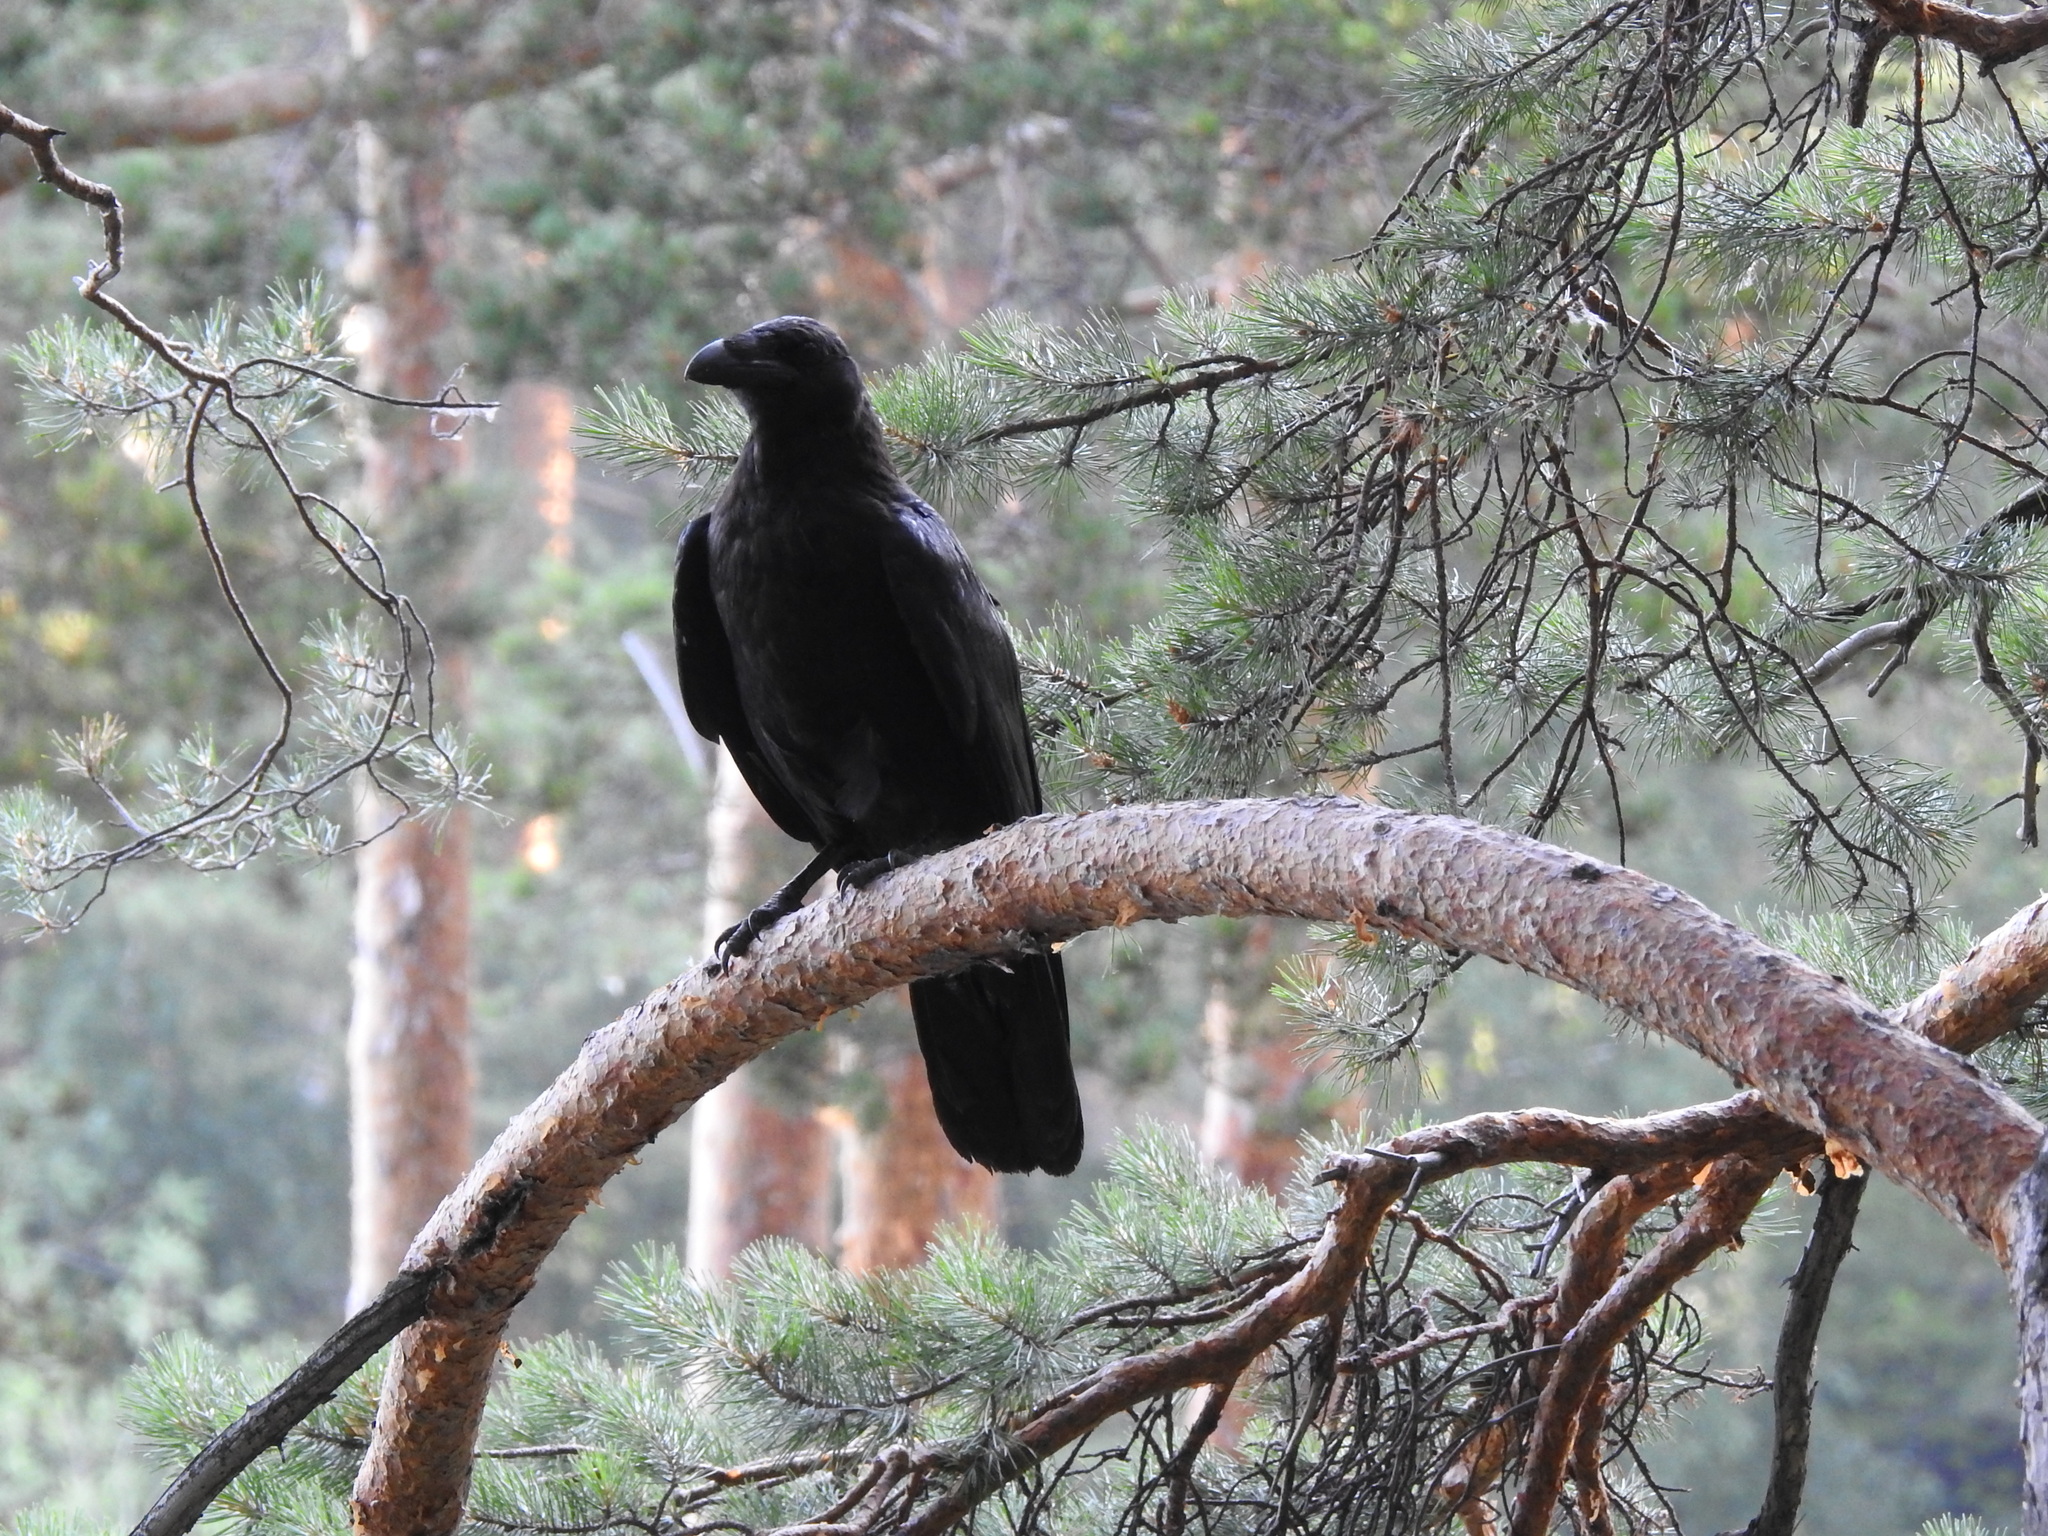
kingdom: Animalia
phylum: Chordata
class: Aves
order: Passeriformes
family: Corvidae
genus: Corvus
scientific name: Corvus corax
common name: Common raven
